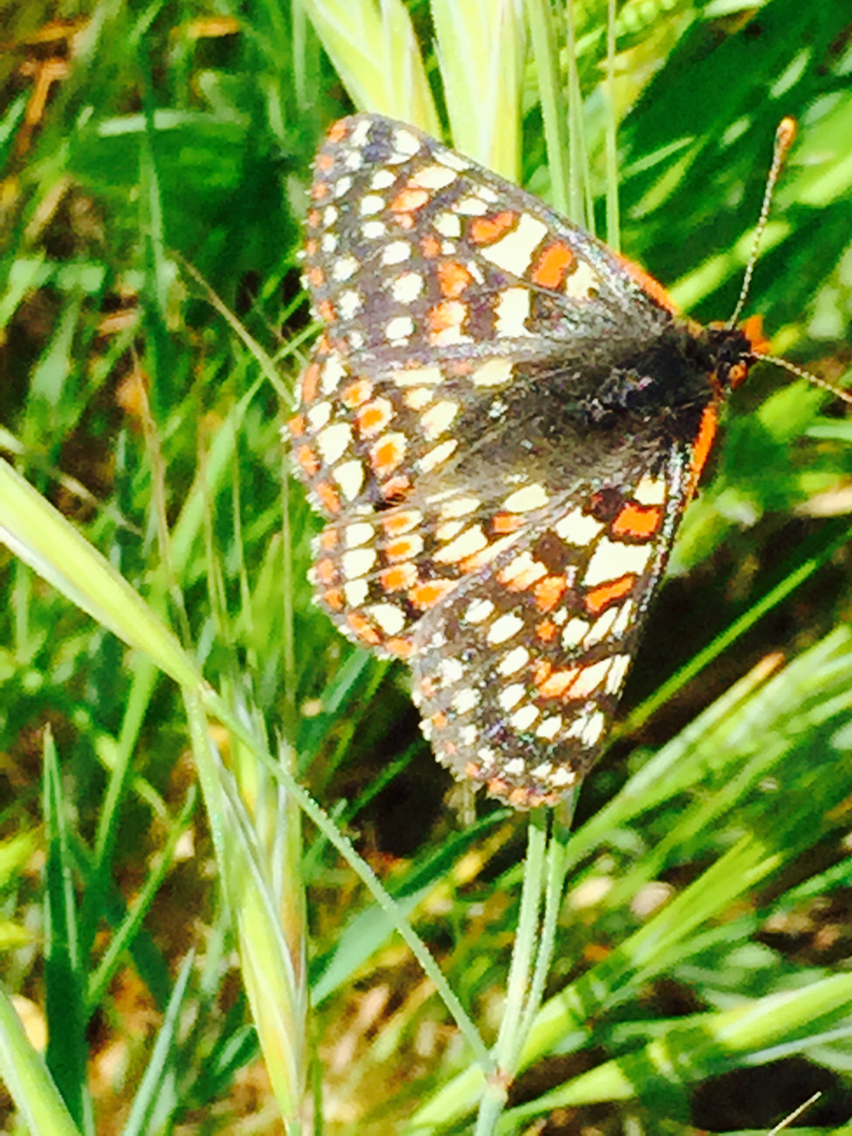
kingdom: Animalia
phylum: Arthropoda
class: Insecta
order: Lepidoptera
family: Nymphalidae
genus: Occidryas
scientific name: Occidryas editha
